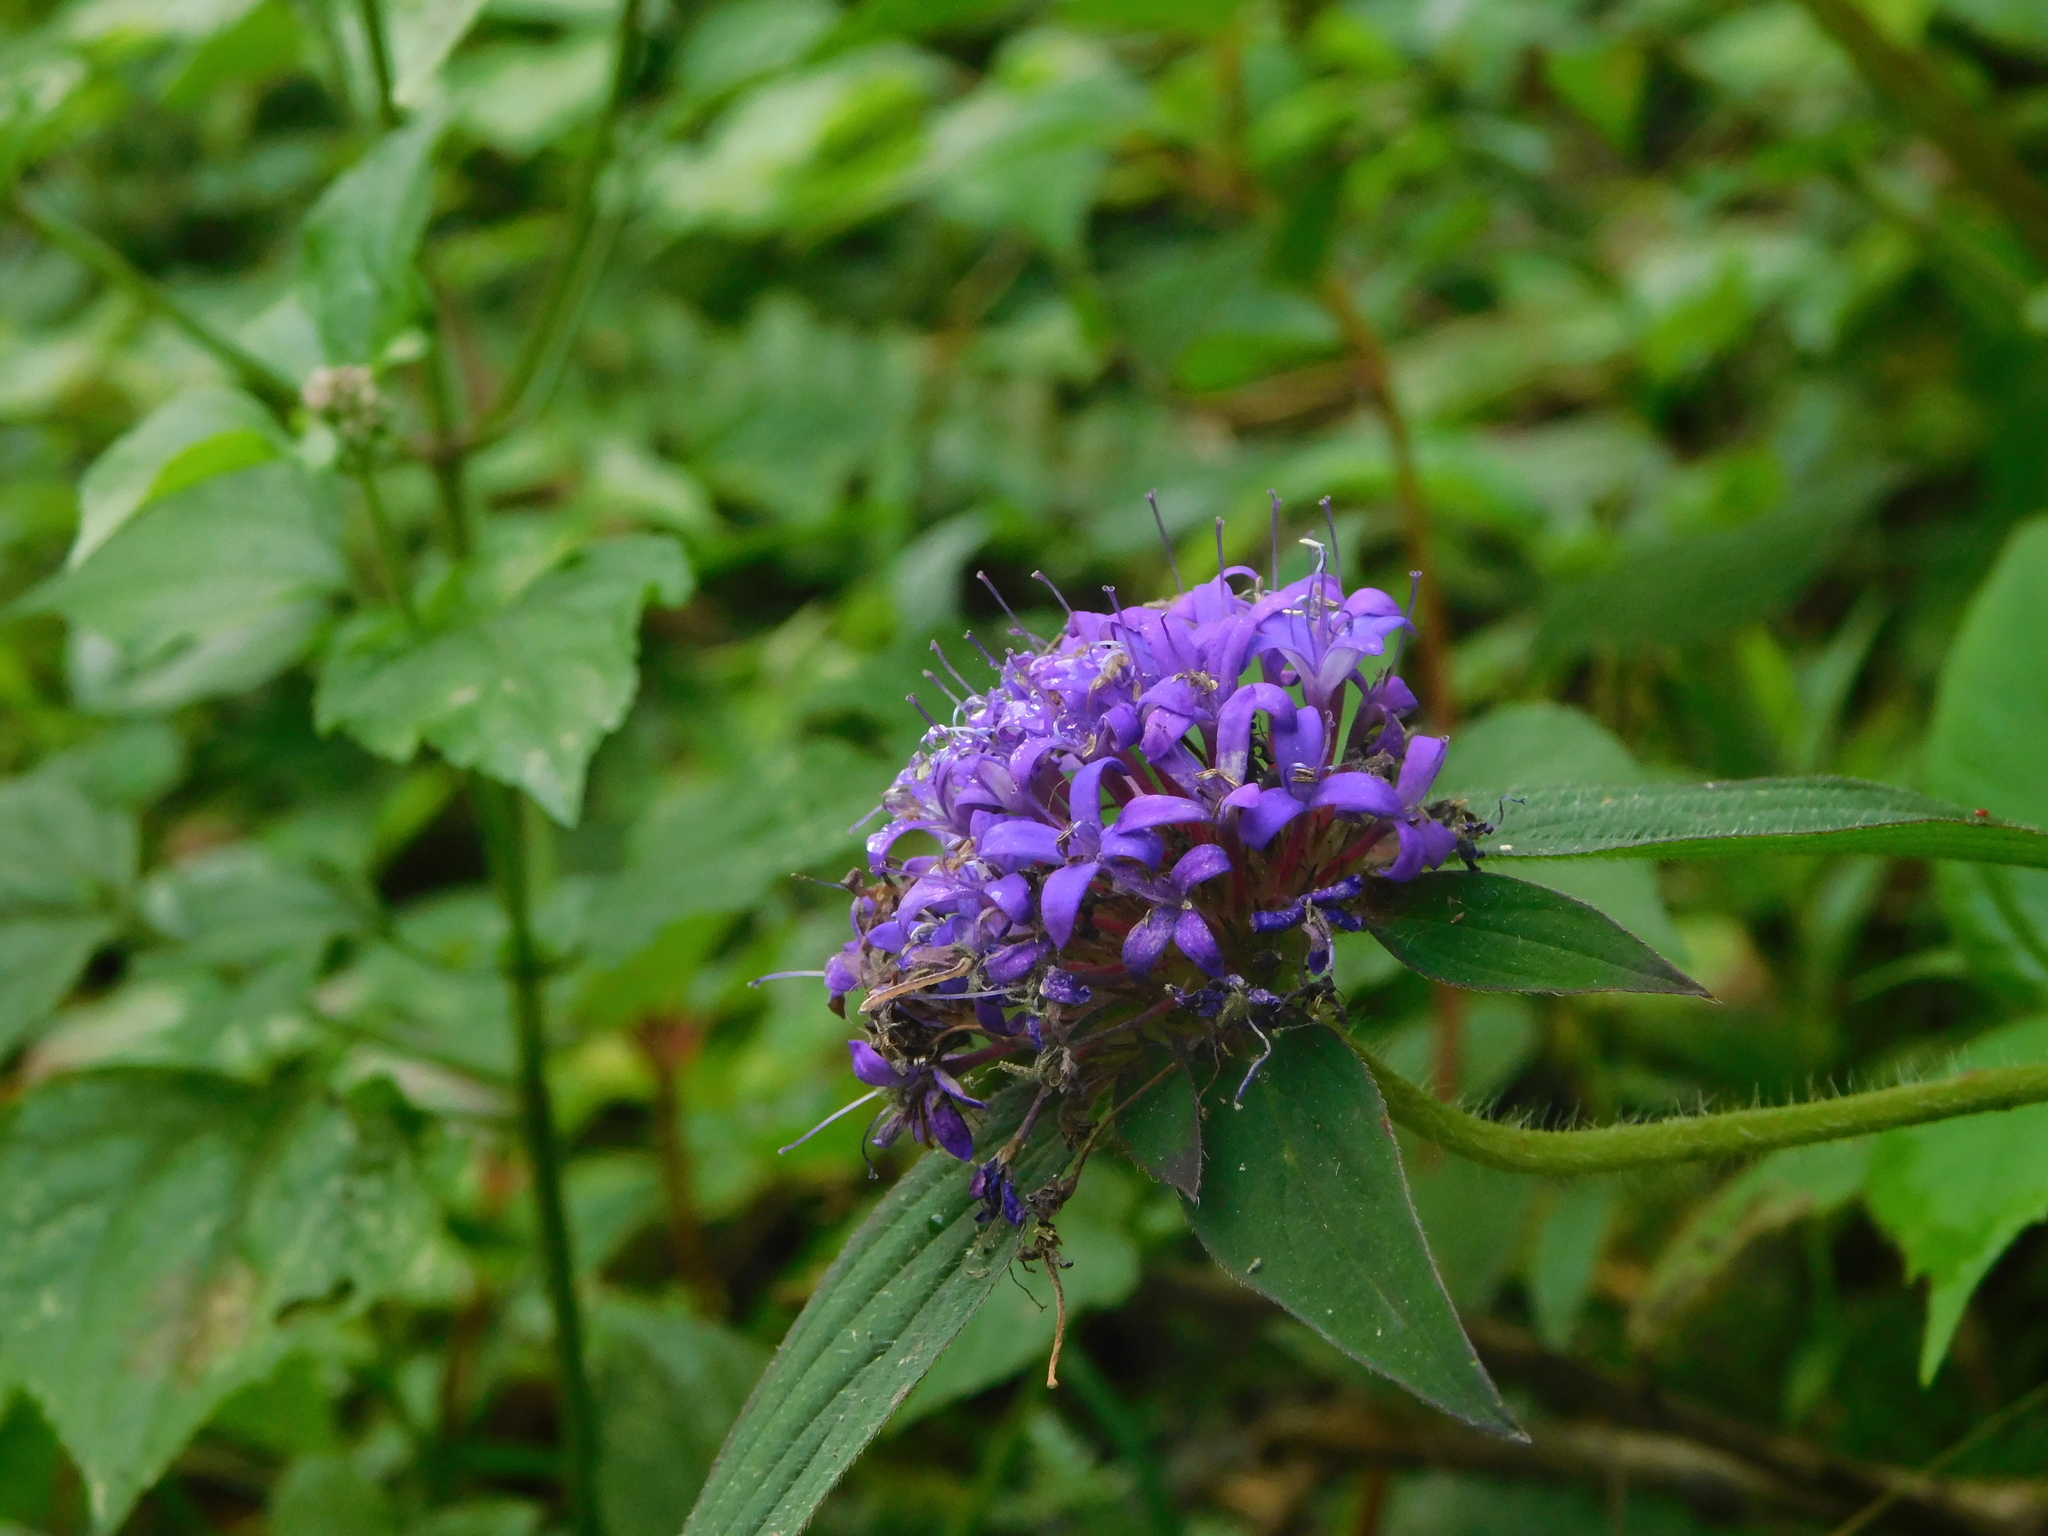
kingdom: Plantae
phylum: Tracheophyta
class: Magnoliopsida
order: Gentianales
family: Rubiaceae
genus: Crusea
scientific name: Crusea hispida
